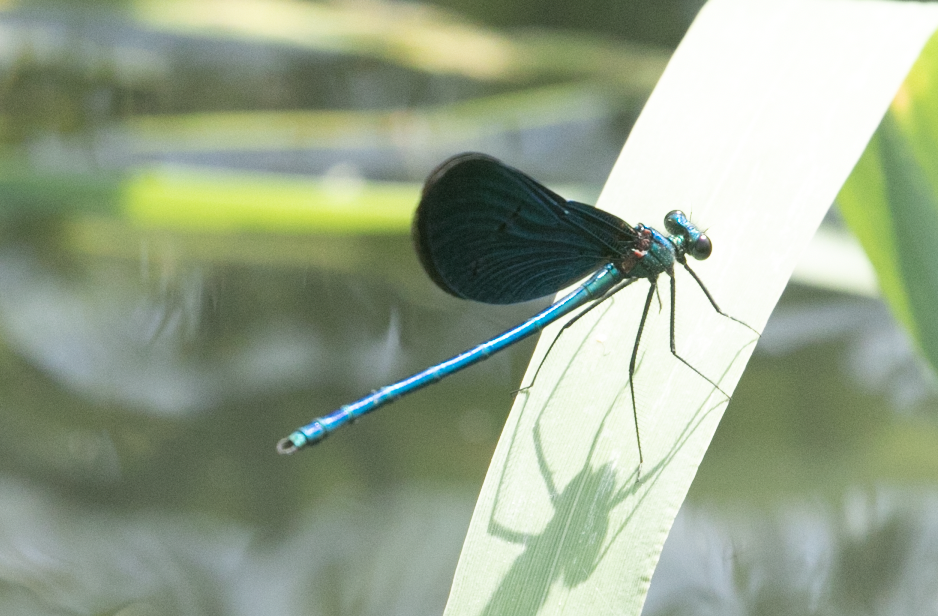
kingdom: Animalia
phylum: Arthropoda
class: Insecta
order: Odonata
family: Calopterygidae
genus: Calopteryx
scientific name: Calopteryx virgo
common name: Beautiful demoiselle
